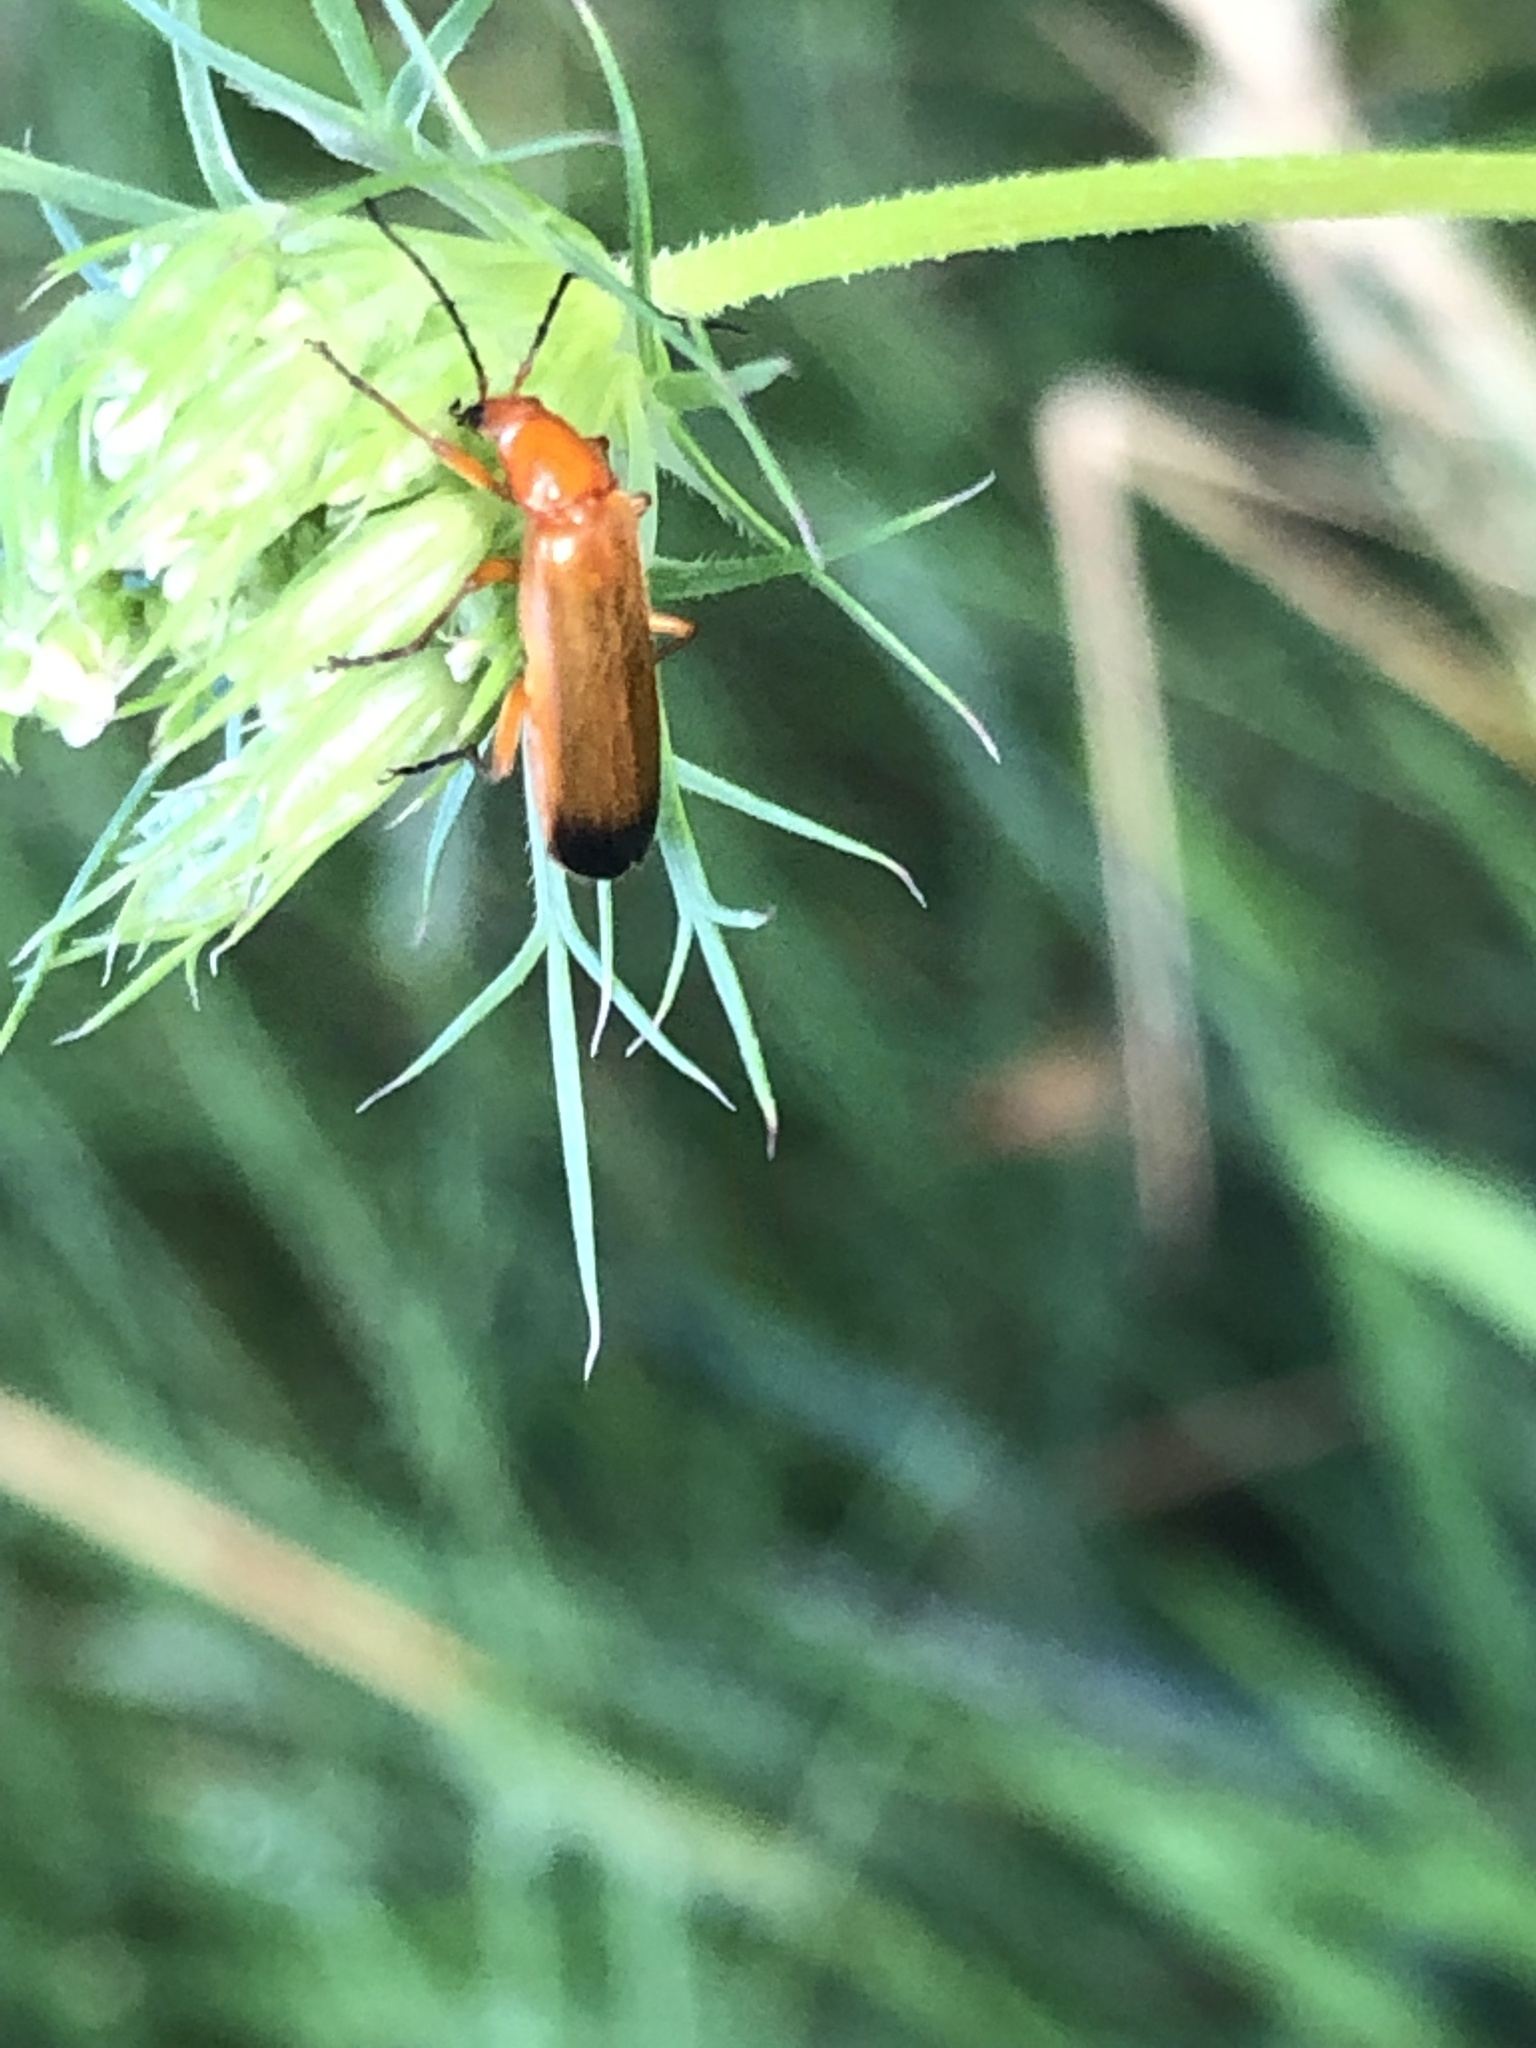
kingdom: Animalia
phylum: Arthropoda
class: Insecta
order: Coleoptera
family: Cantharidae
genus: Rhagonycha
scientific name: Rhagonycha fulva
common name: Common red soldier beetle
